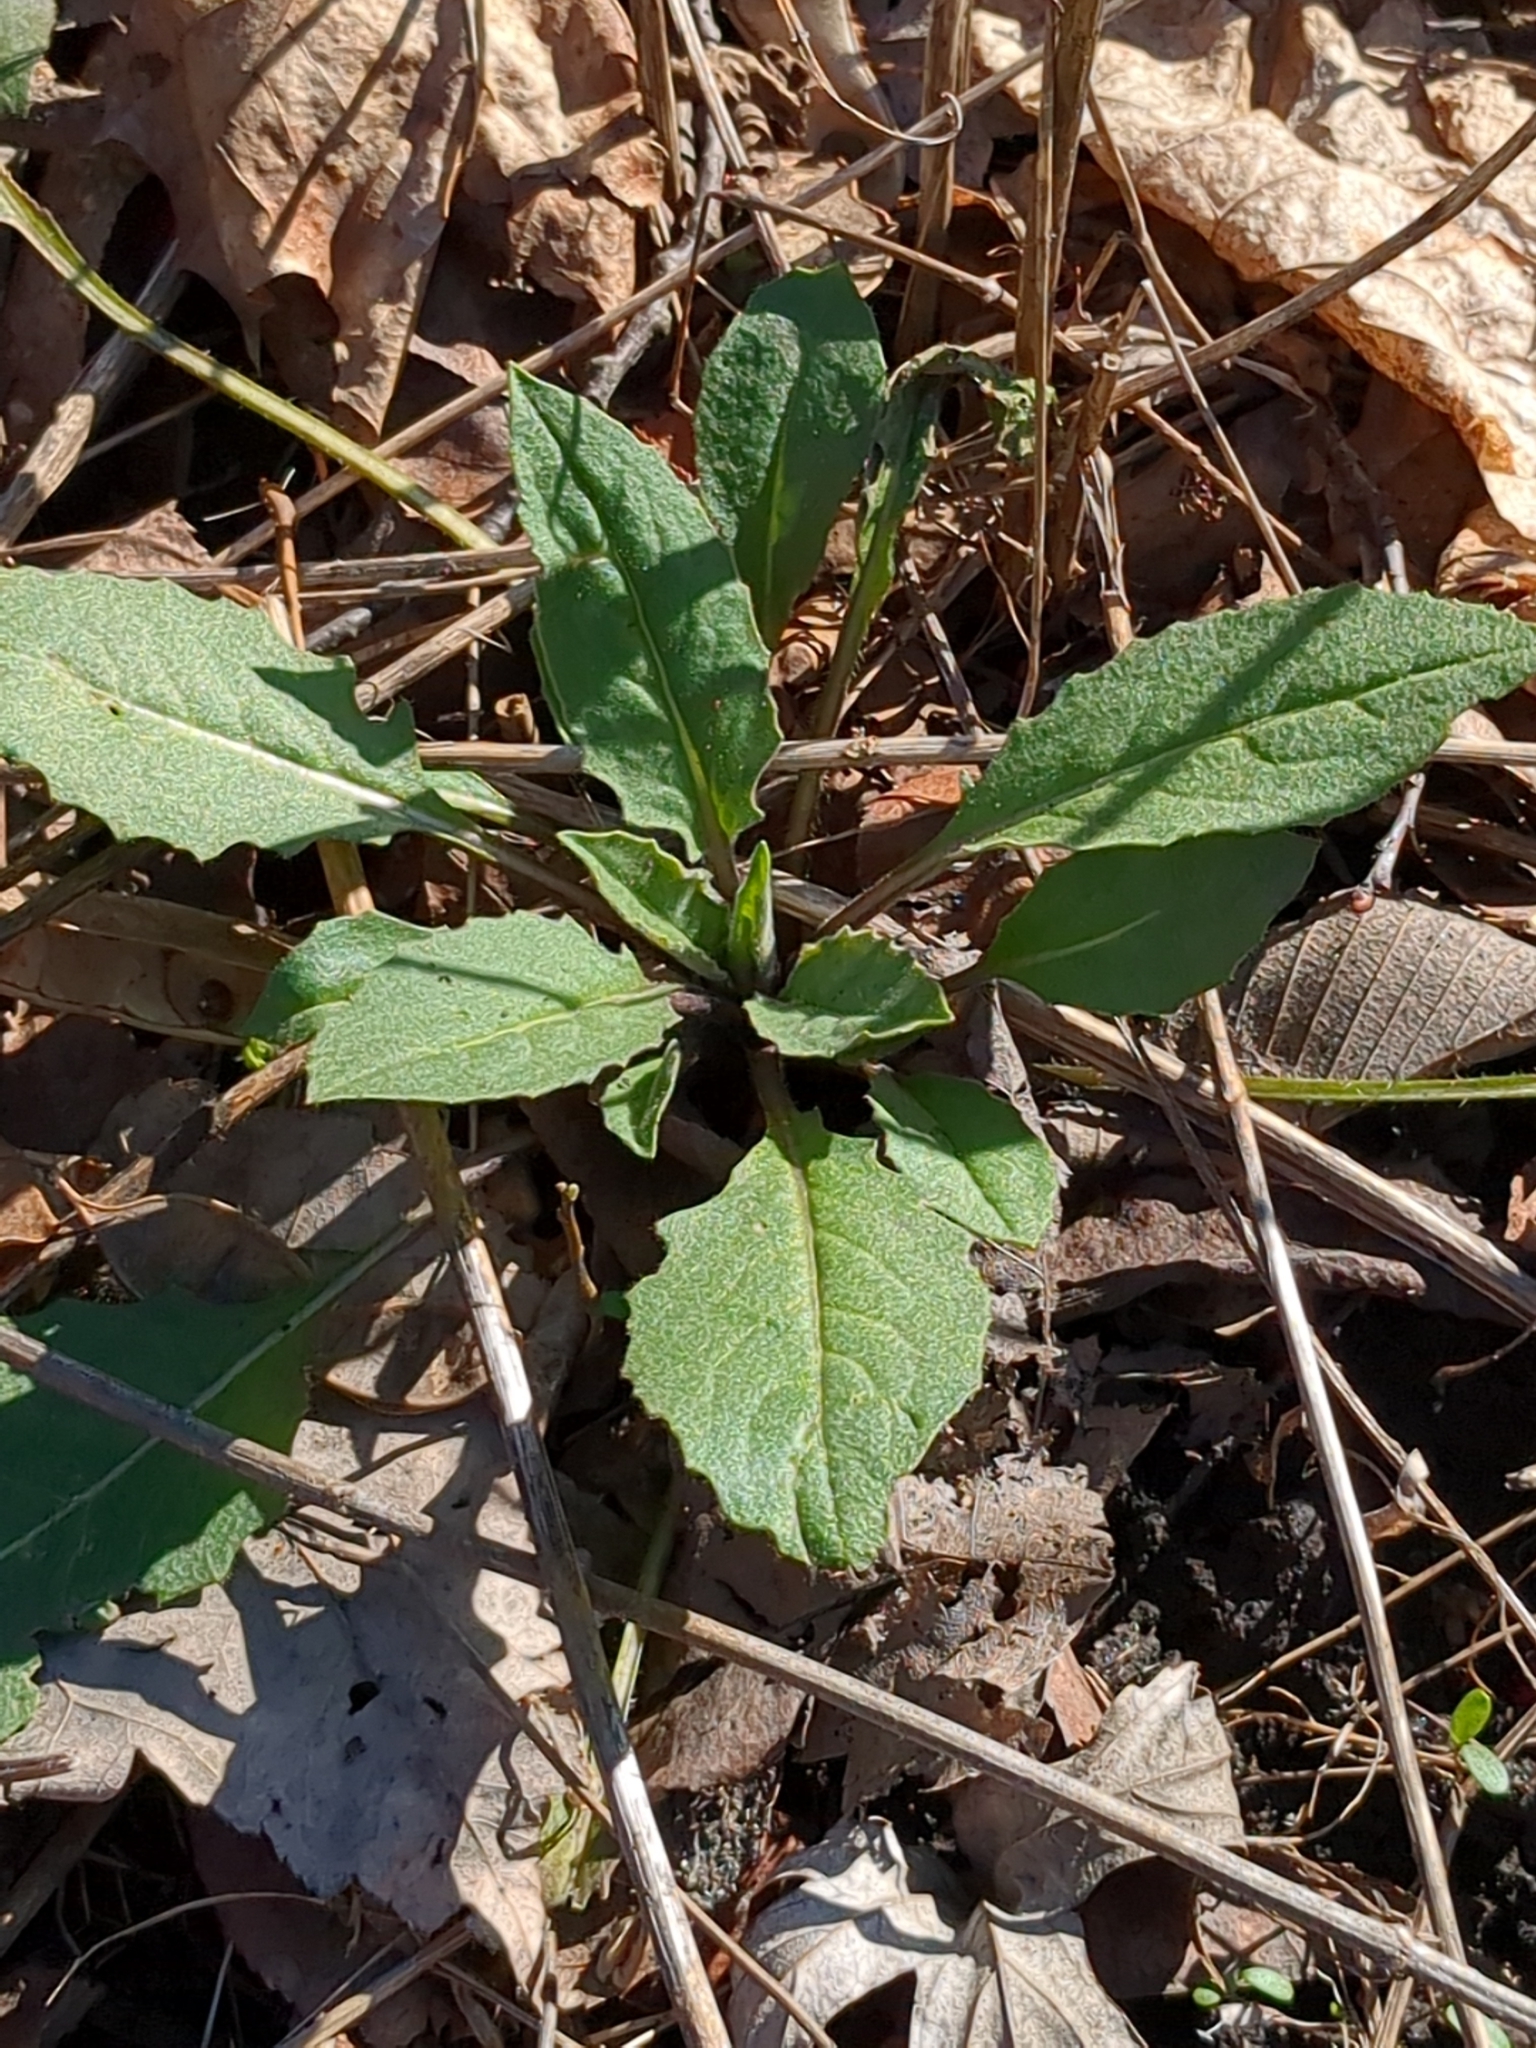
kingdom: Plantae
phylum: Tracheophyta
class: Magnoliopsida
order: Brassicales
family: Brassicaceae
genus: Hesperis
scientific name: Hesperis matronalis
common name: Dame's-violet
